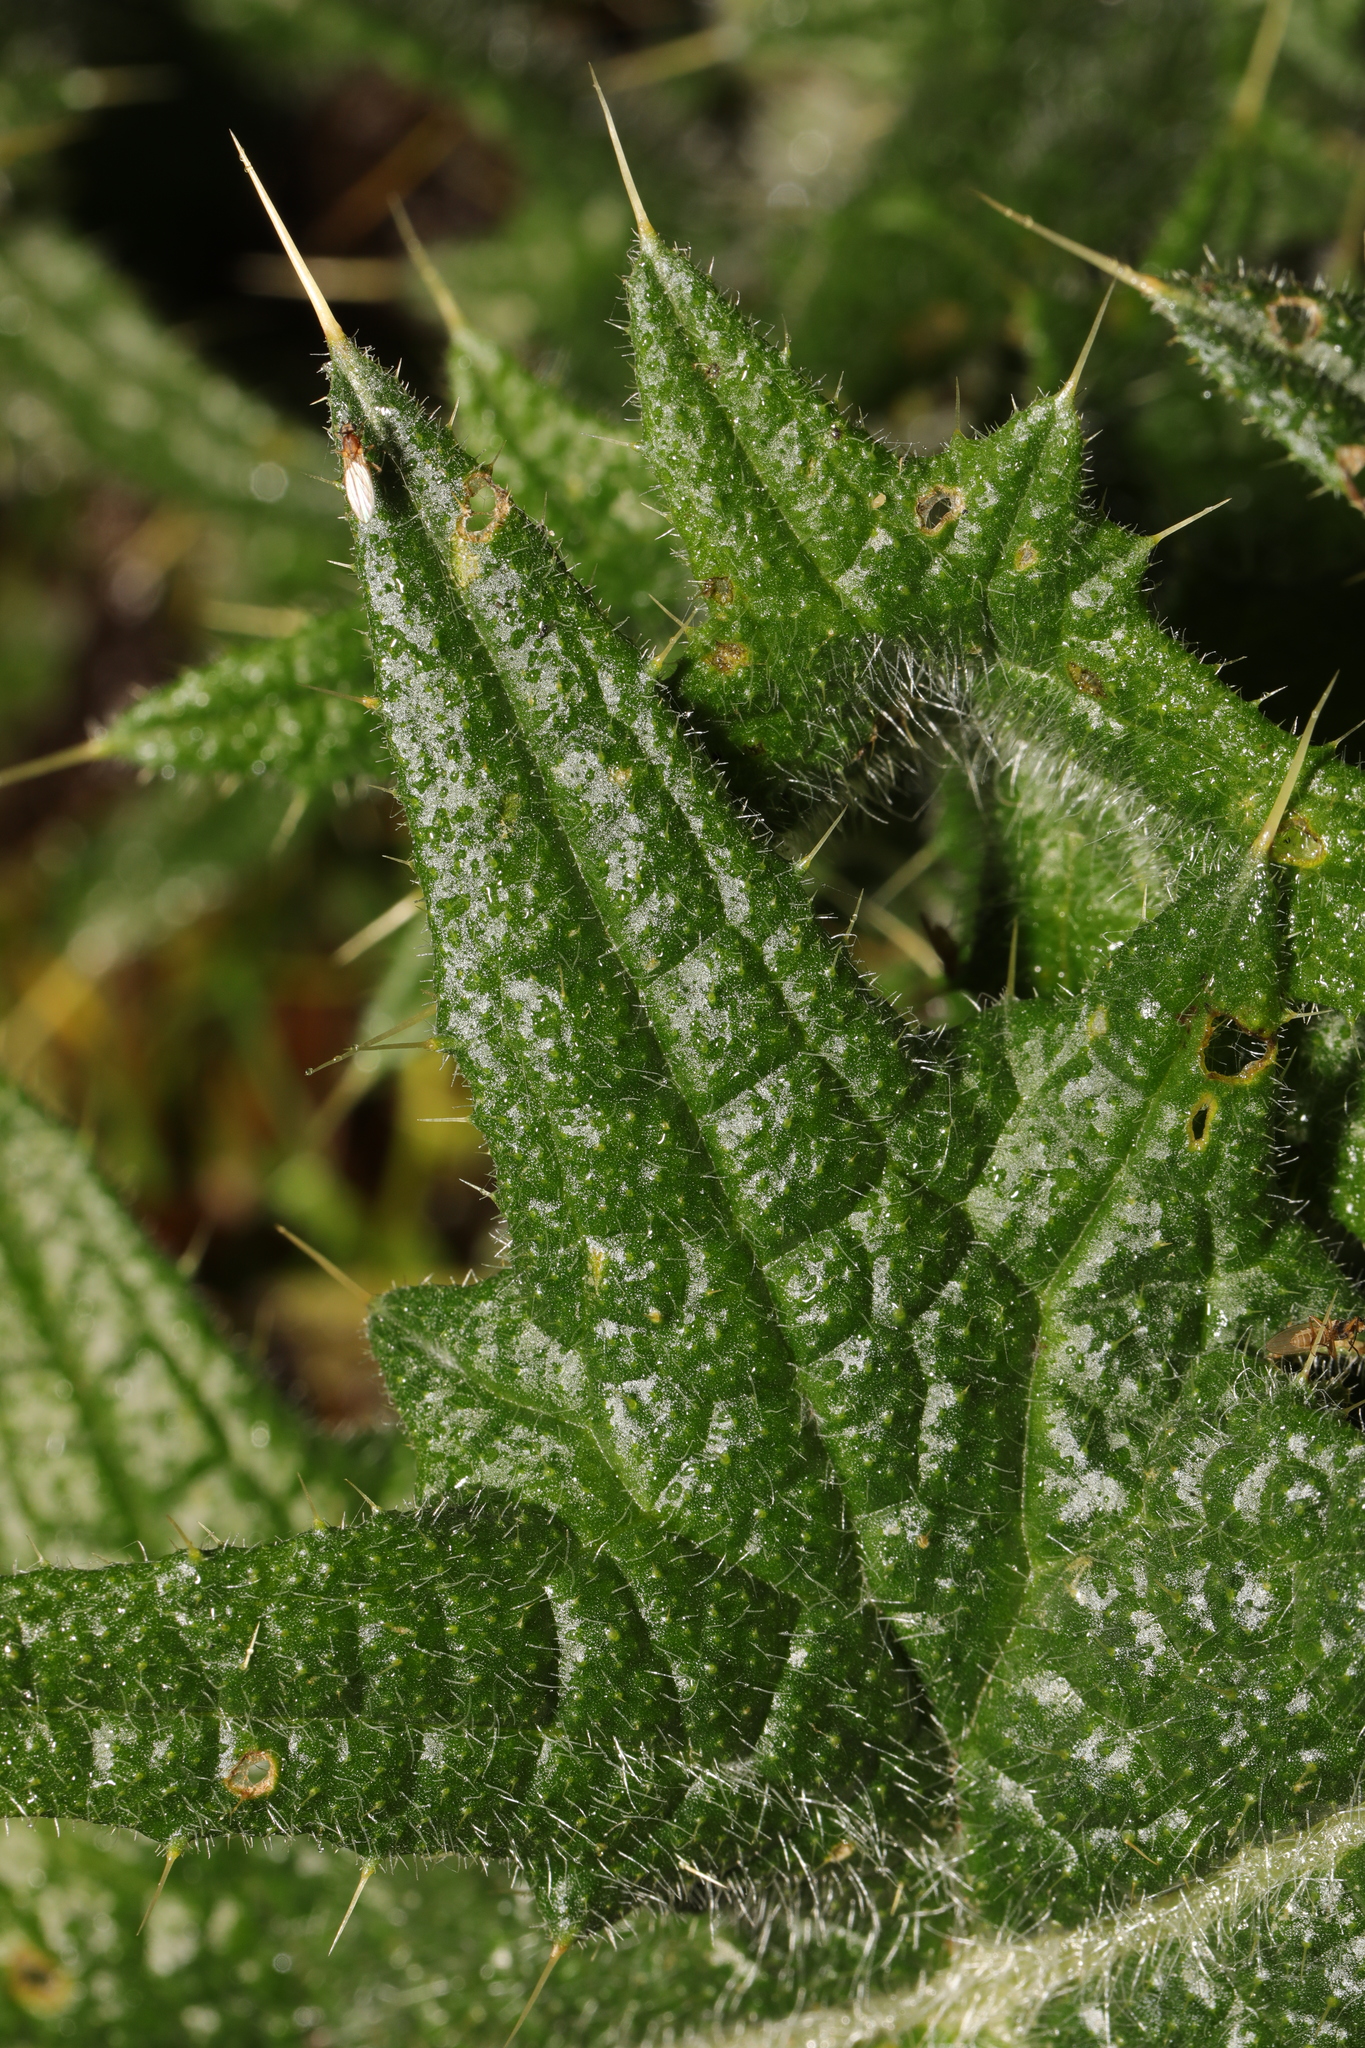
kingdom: Plantae
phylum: Tracheophyta
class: Magnoliopsida
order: Asterales
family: Asteraceae
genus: Cirsium
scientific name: Cirsium vulgare
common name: Bull thistle
